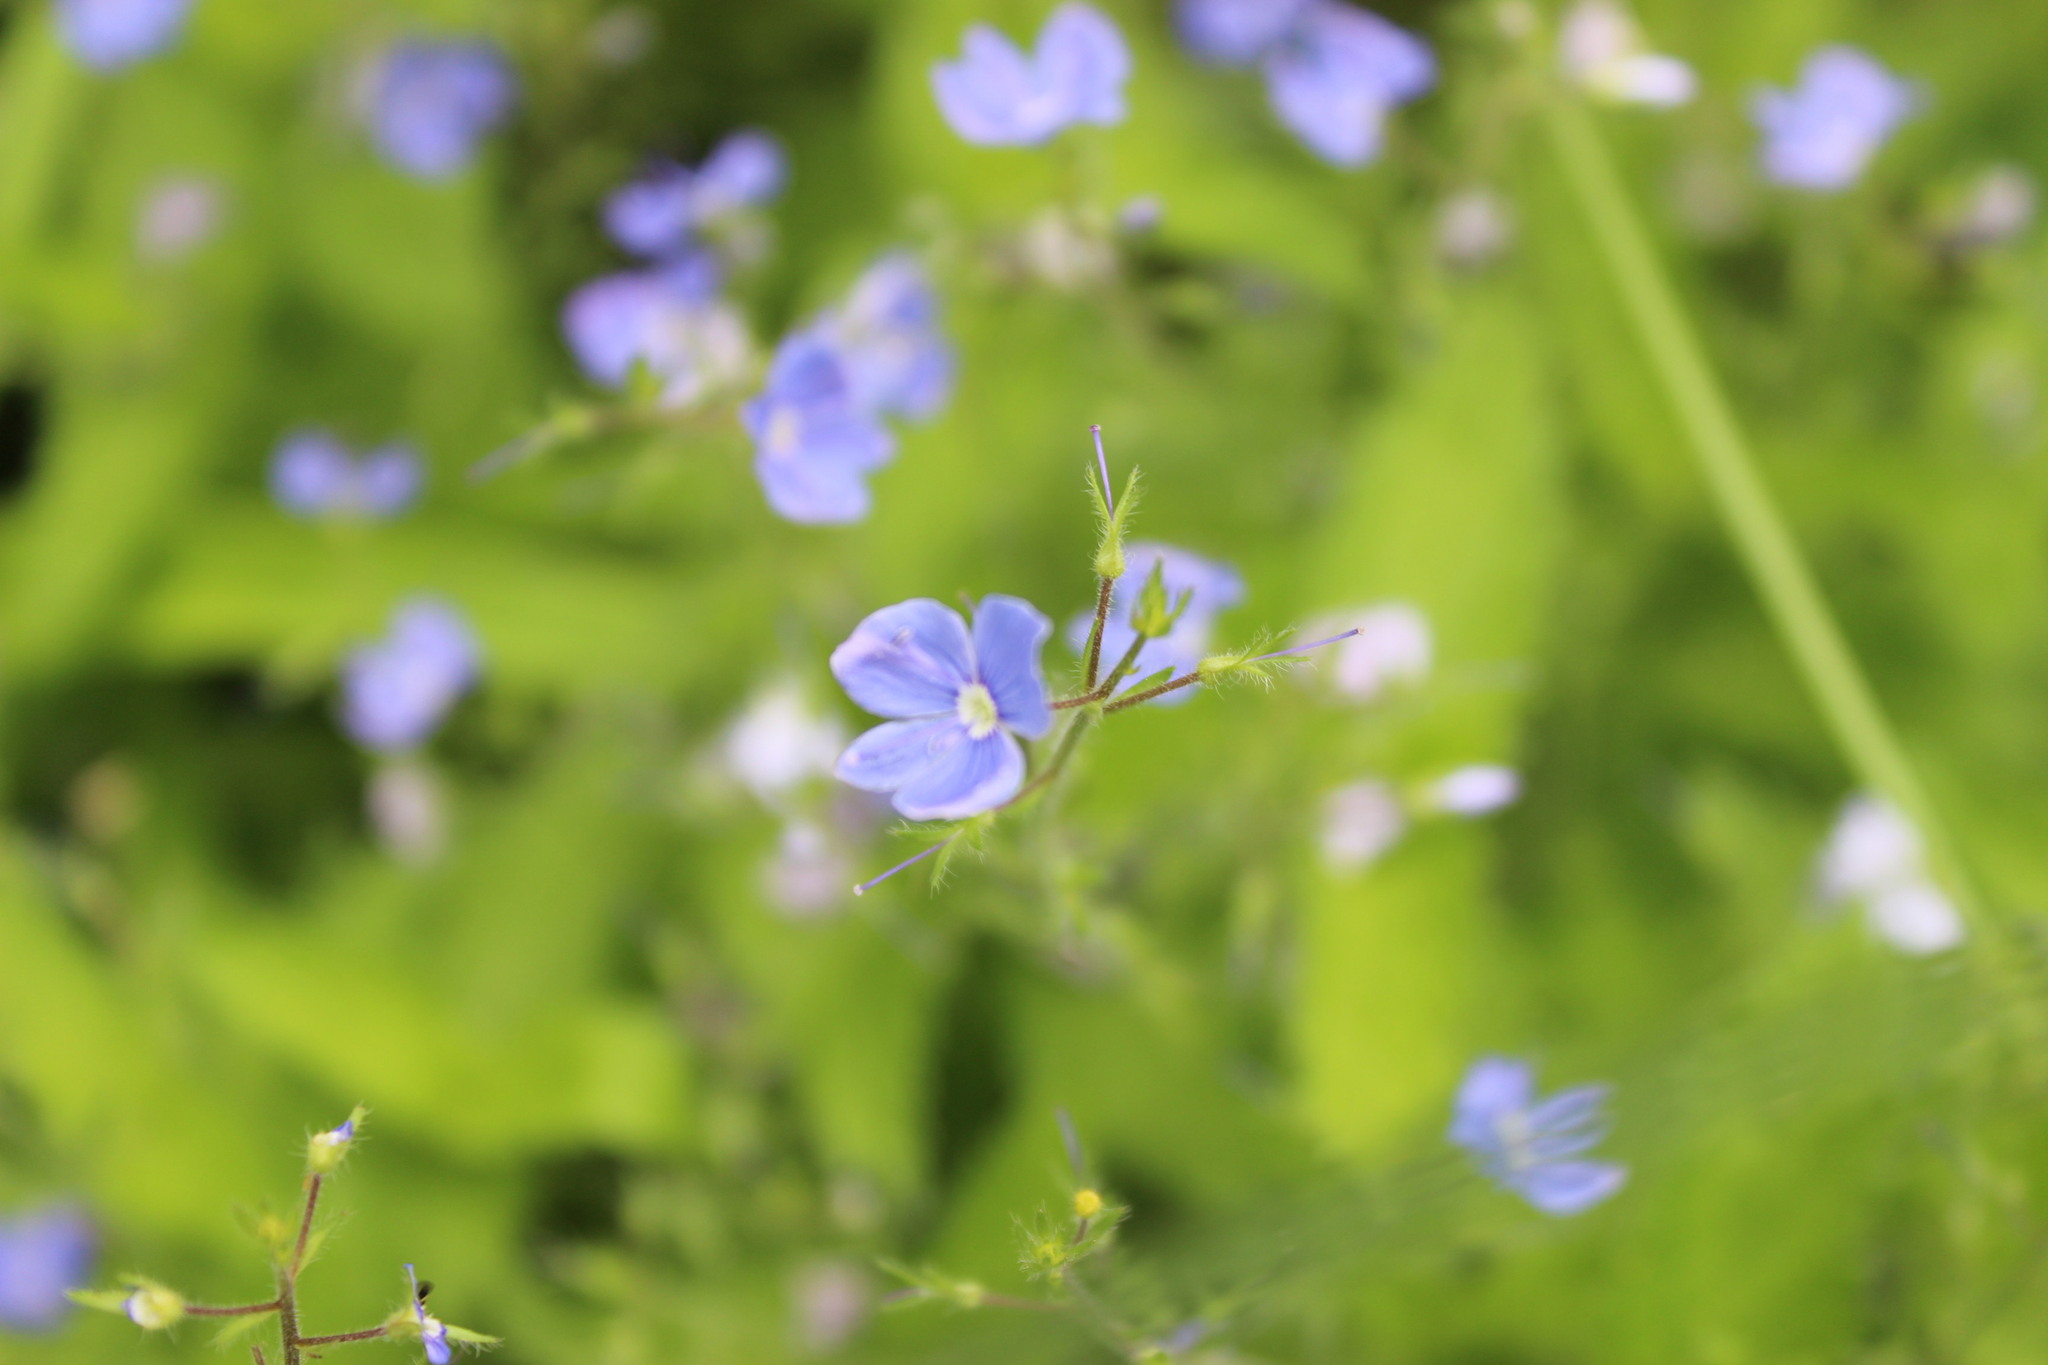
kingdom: Plantae
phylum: Tracheophyta
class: Magnoliopsida
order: Lamiales
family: Plantaginaceae
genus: Veronica
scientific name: Veronica chamaedrys
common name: Germander speedwell
